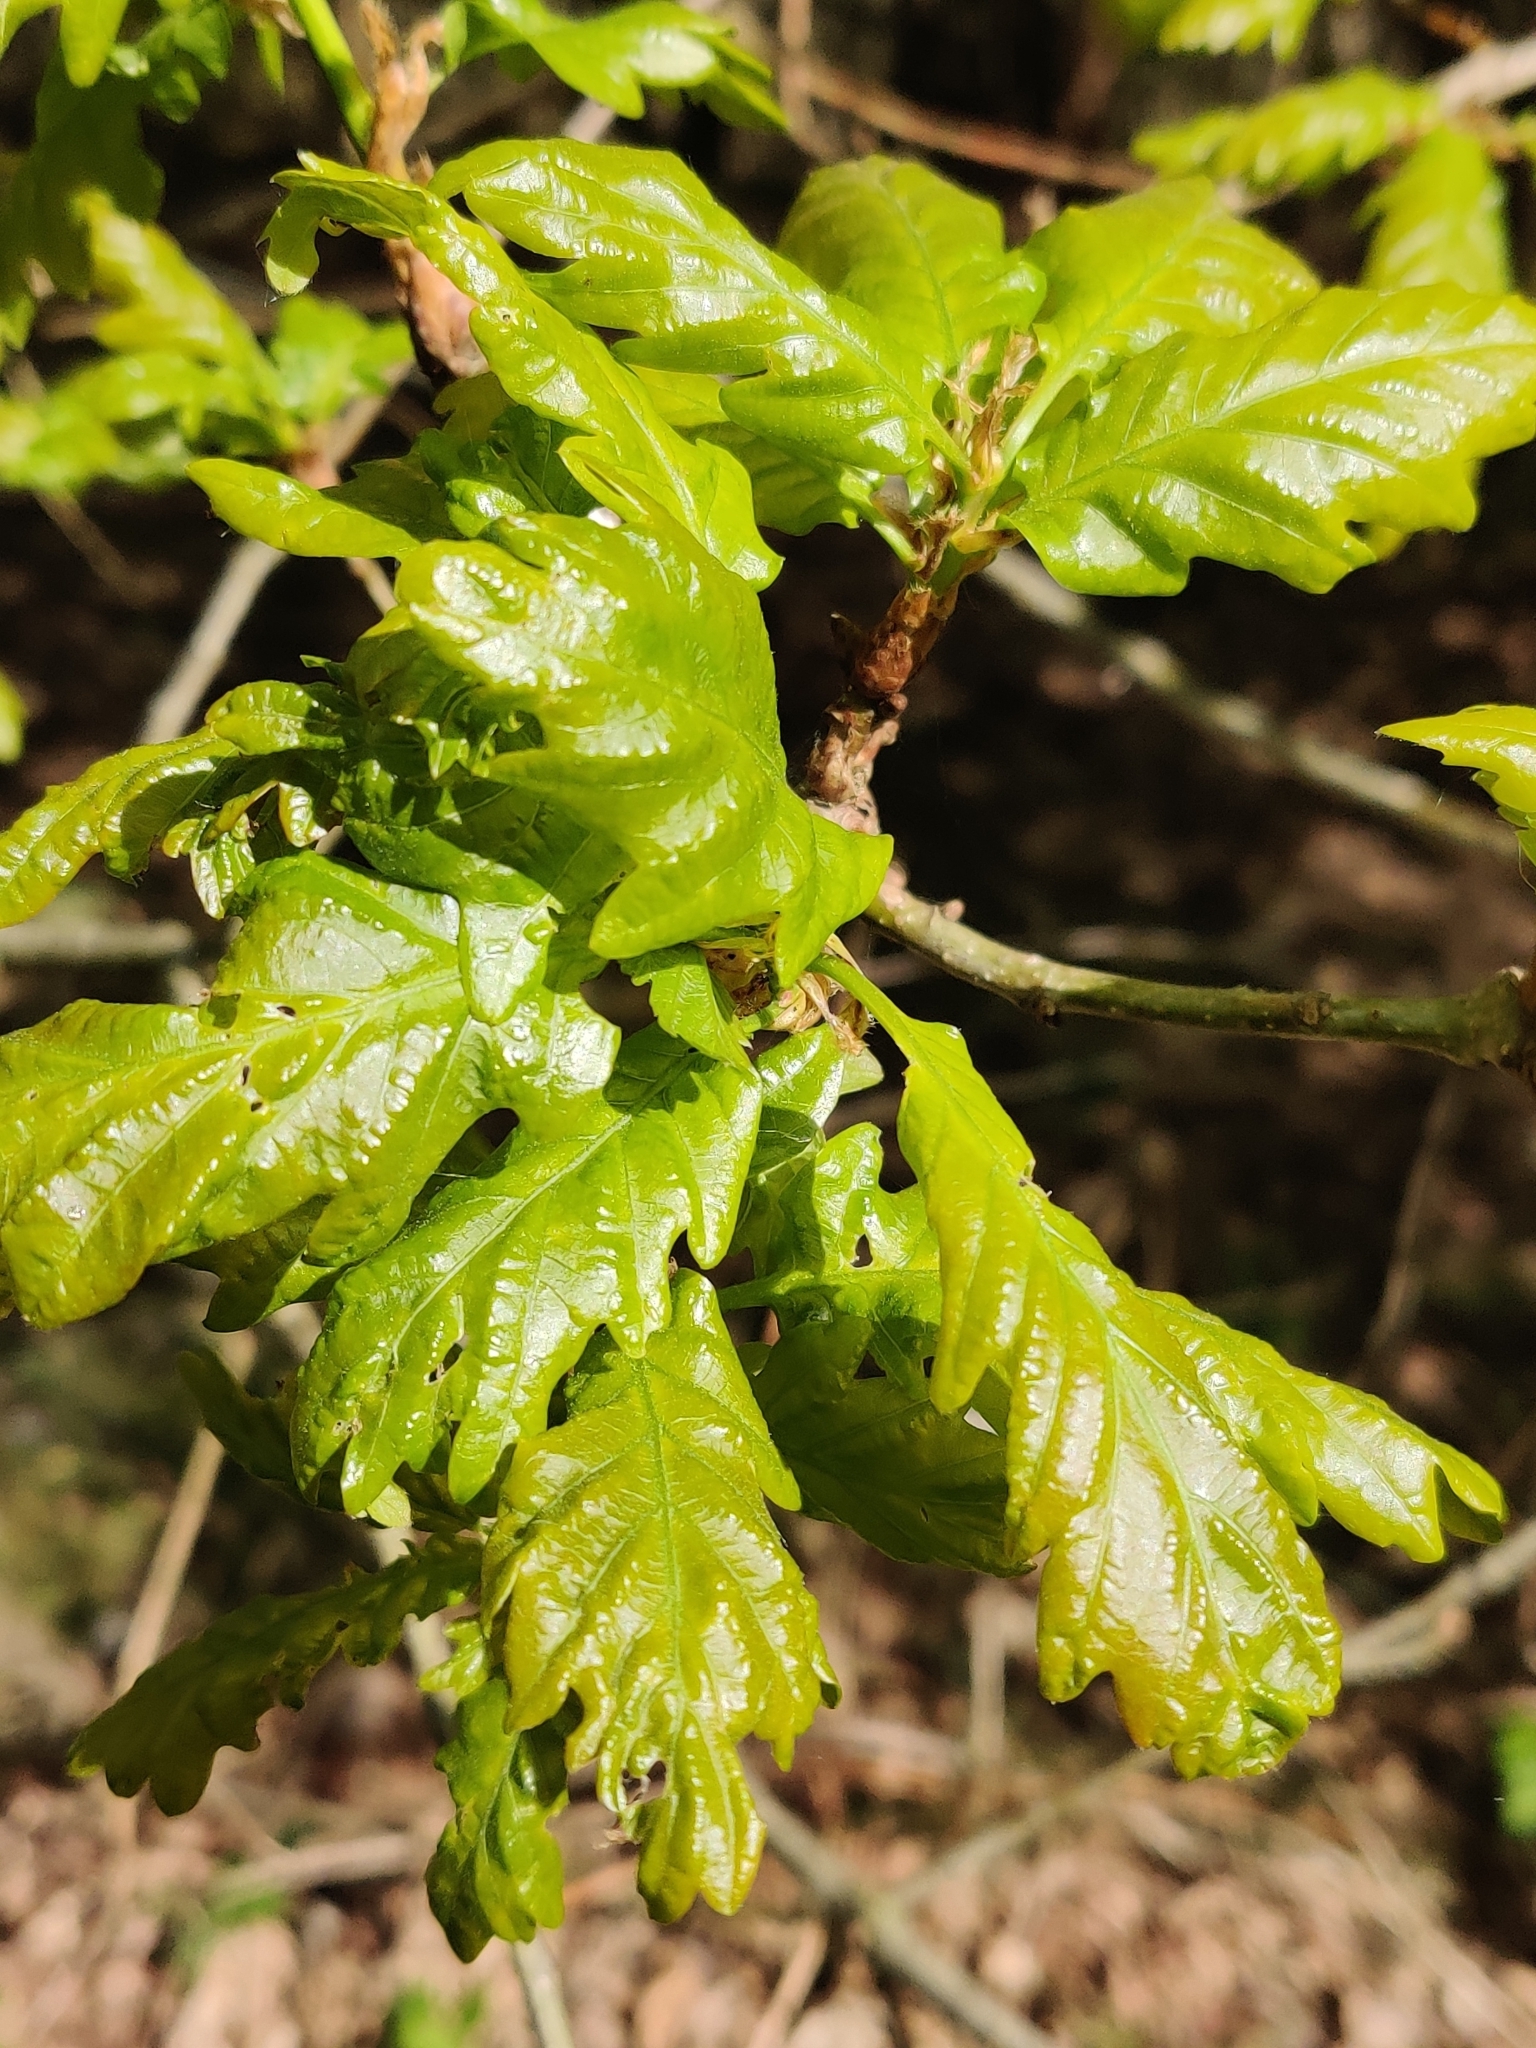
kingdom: Plantae
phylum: Tracheophyta
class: Magnoliopsida
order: Fagales
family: Fagaceae
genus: Quercus
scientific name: Quercus robur
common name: Pedunculate oak
